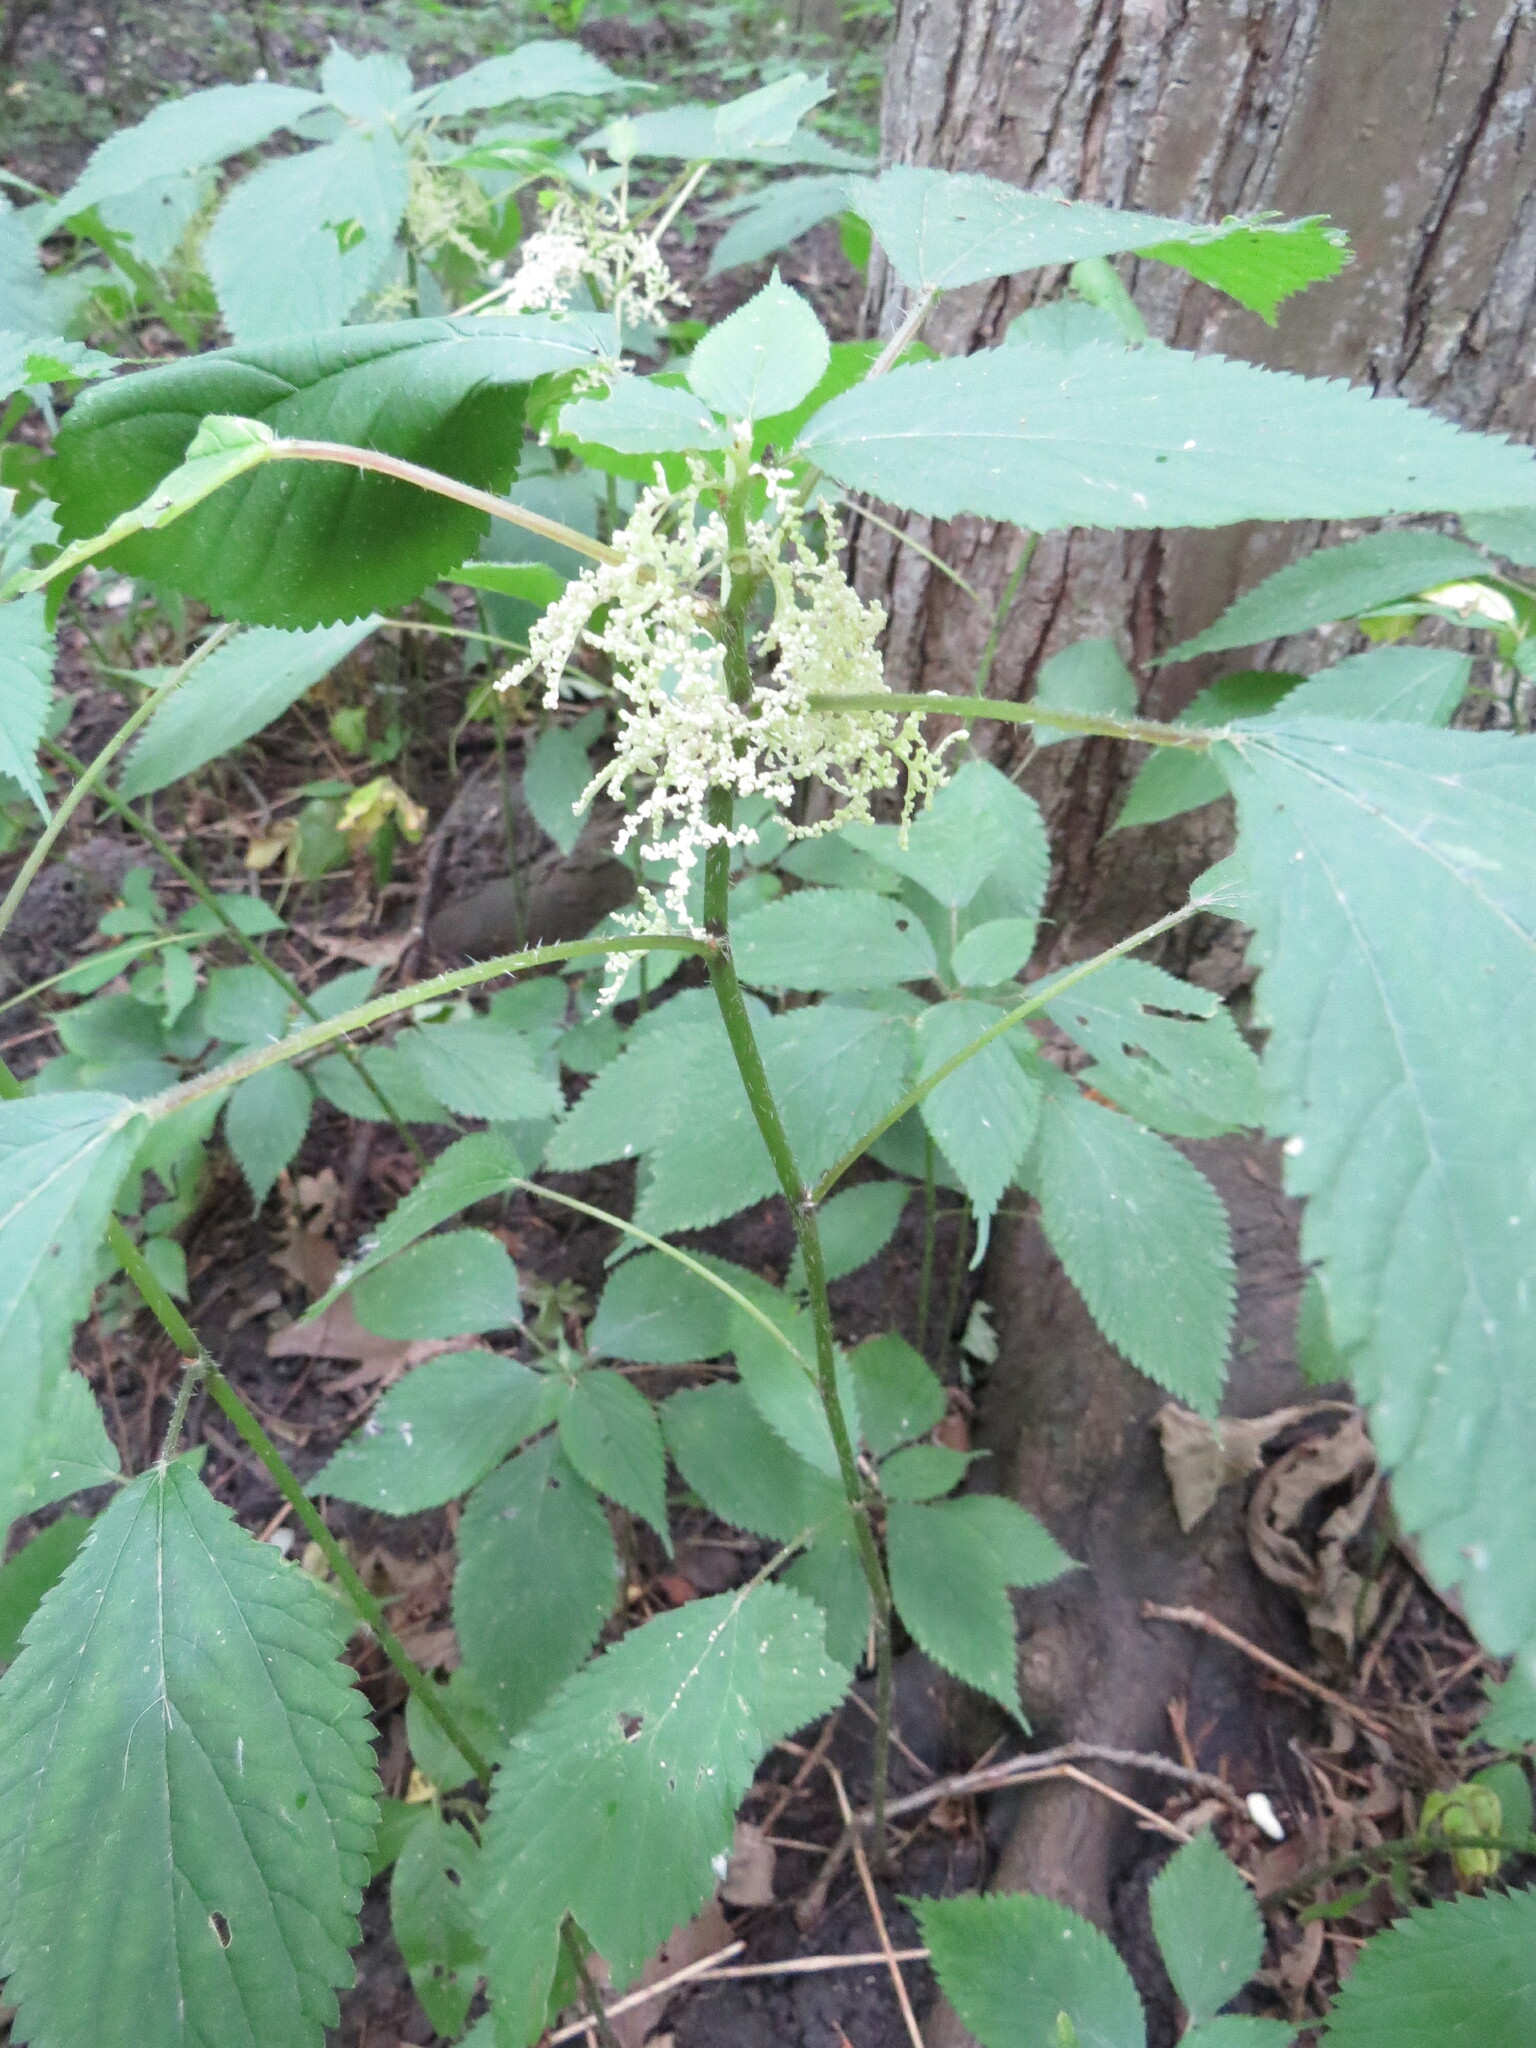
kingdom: Plantae
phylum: Tracheophyta
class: Magnoliopsida
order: Rosales
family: Urticaceae
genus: Laportea
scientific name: Laportea canadensis
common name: Canada nettle
